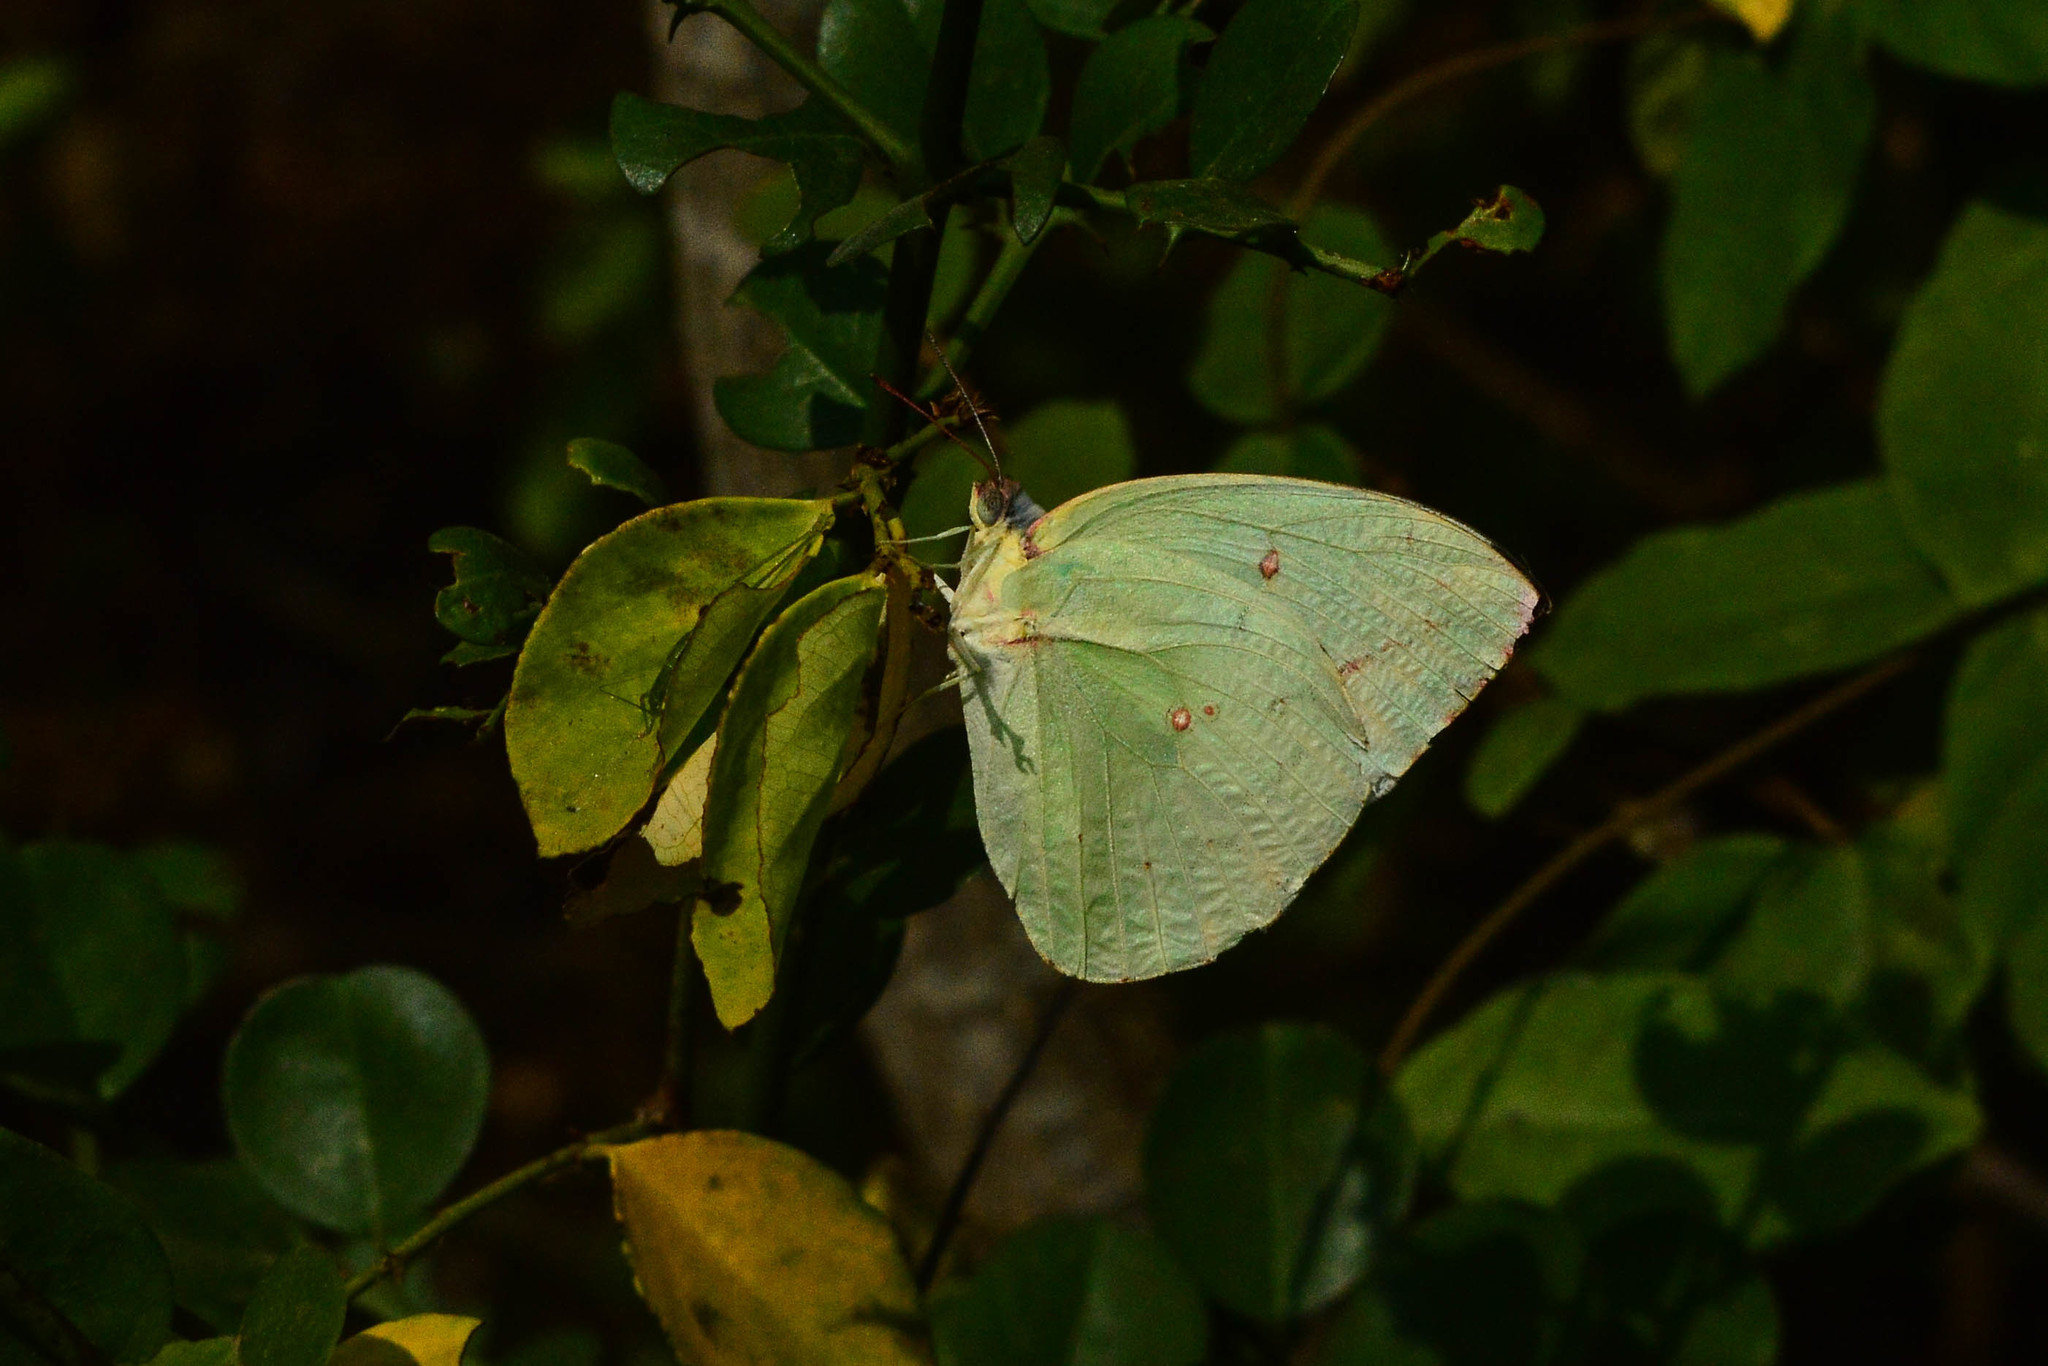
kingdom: Animalia
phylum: Arthropoda
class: Insecta
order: Lepidoptera
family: Pieridae
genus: Catopsilia
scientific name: Catopsilia pomona
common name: Common emigrant
